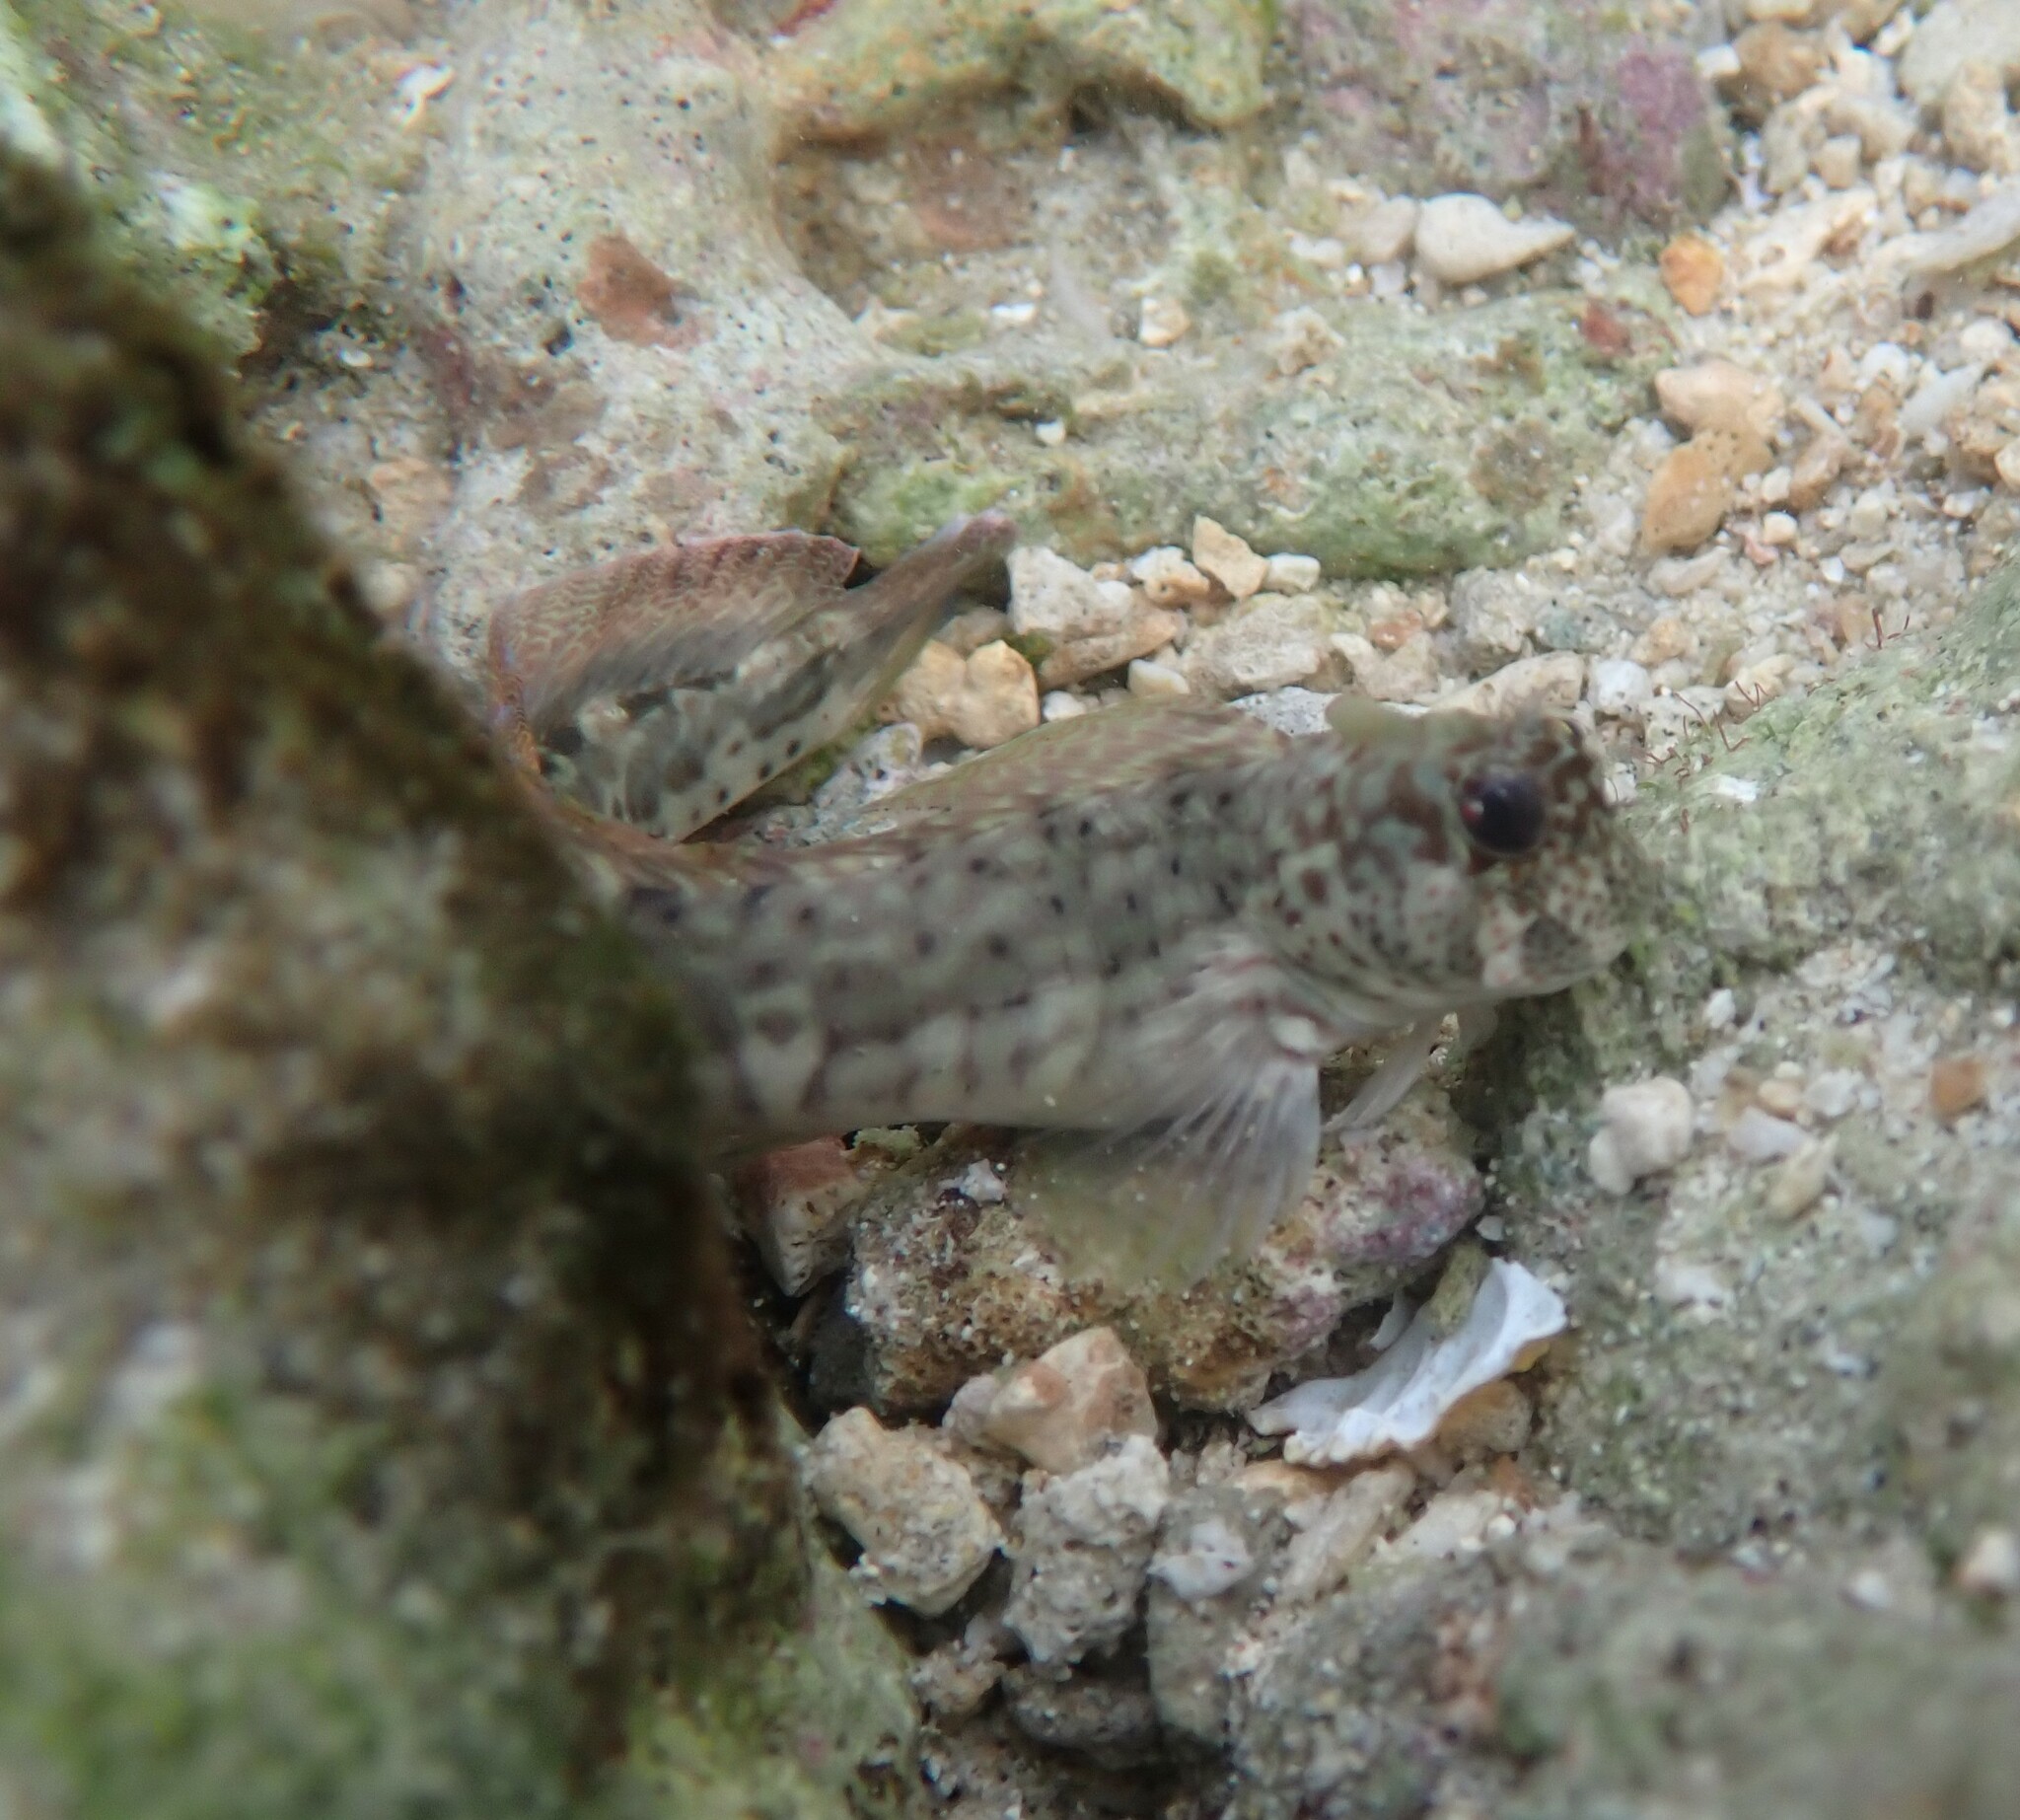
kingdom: Animalia
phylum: Chordata
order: Perciformes
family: Blenniidae
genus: Istiblennius
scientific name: Istiblennius dussumieri
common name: Dussumier's rockskipper
